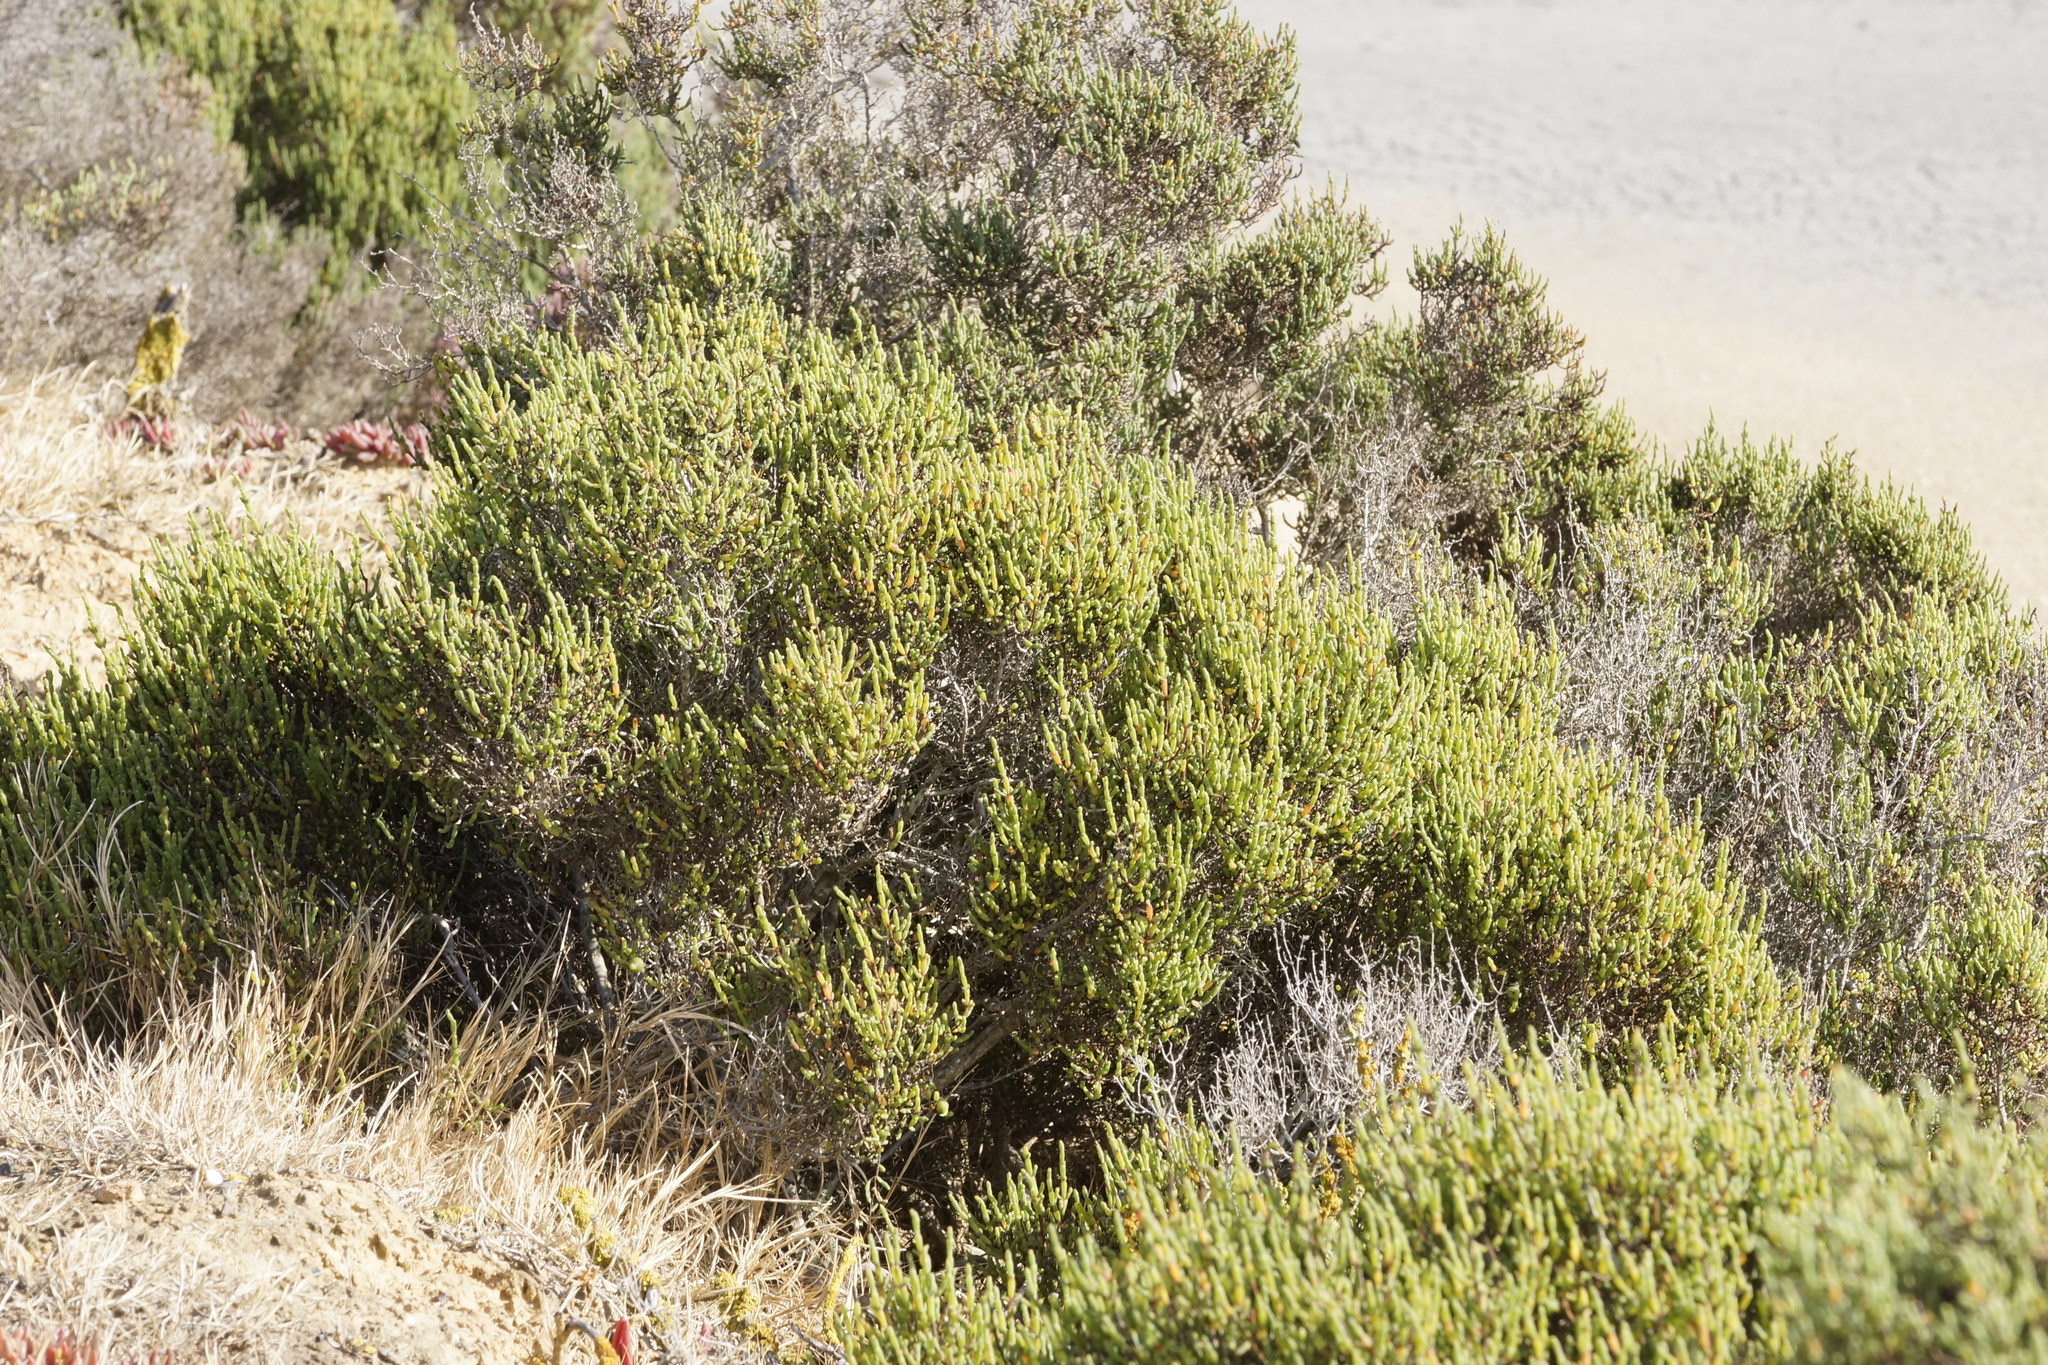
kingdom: Plantae
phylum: Tracheophyta
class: Magnoliopsida
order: Caryophyllales
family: Amaranthaceae
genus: Tecticornia
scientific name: Tecticornia arbuscula
